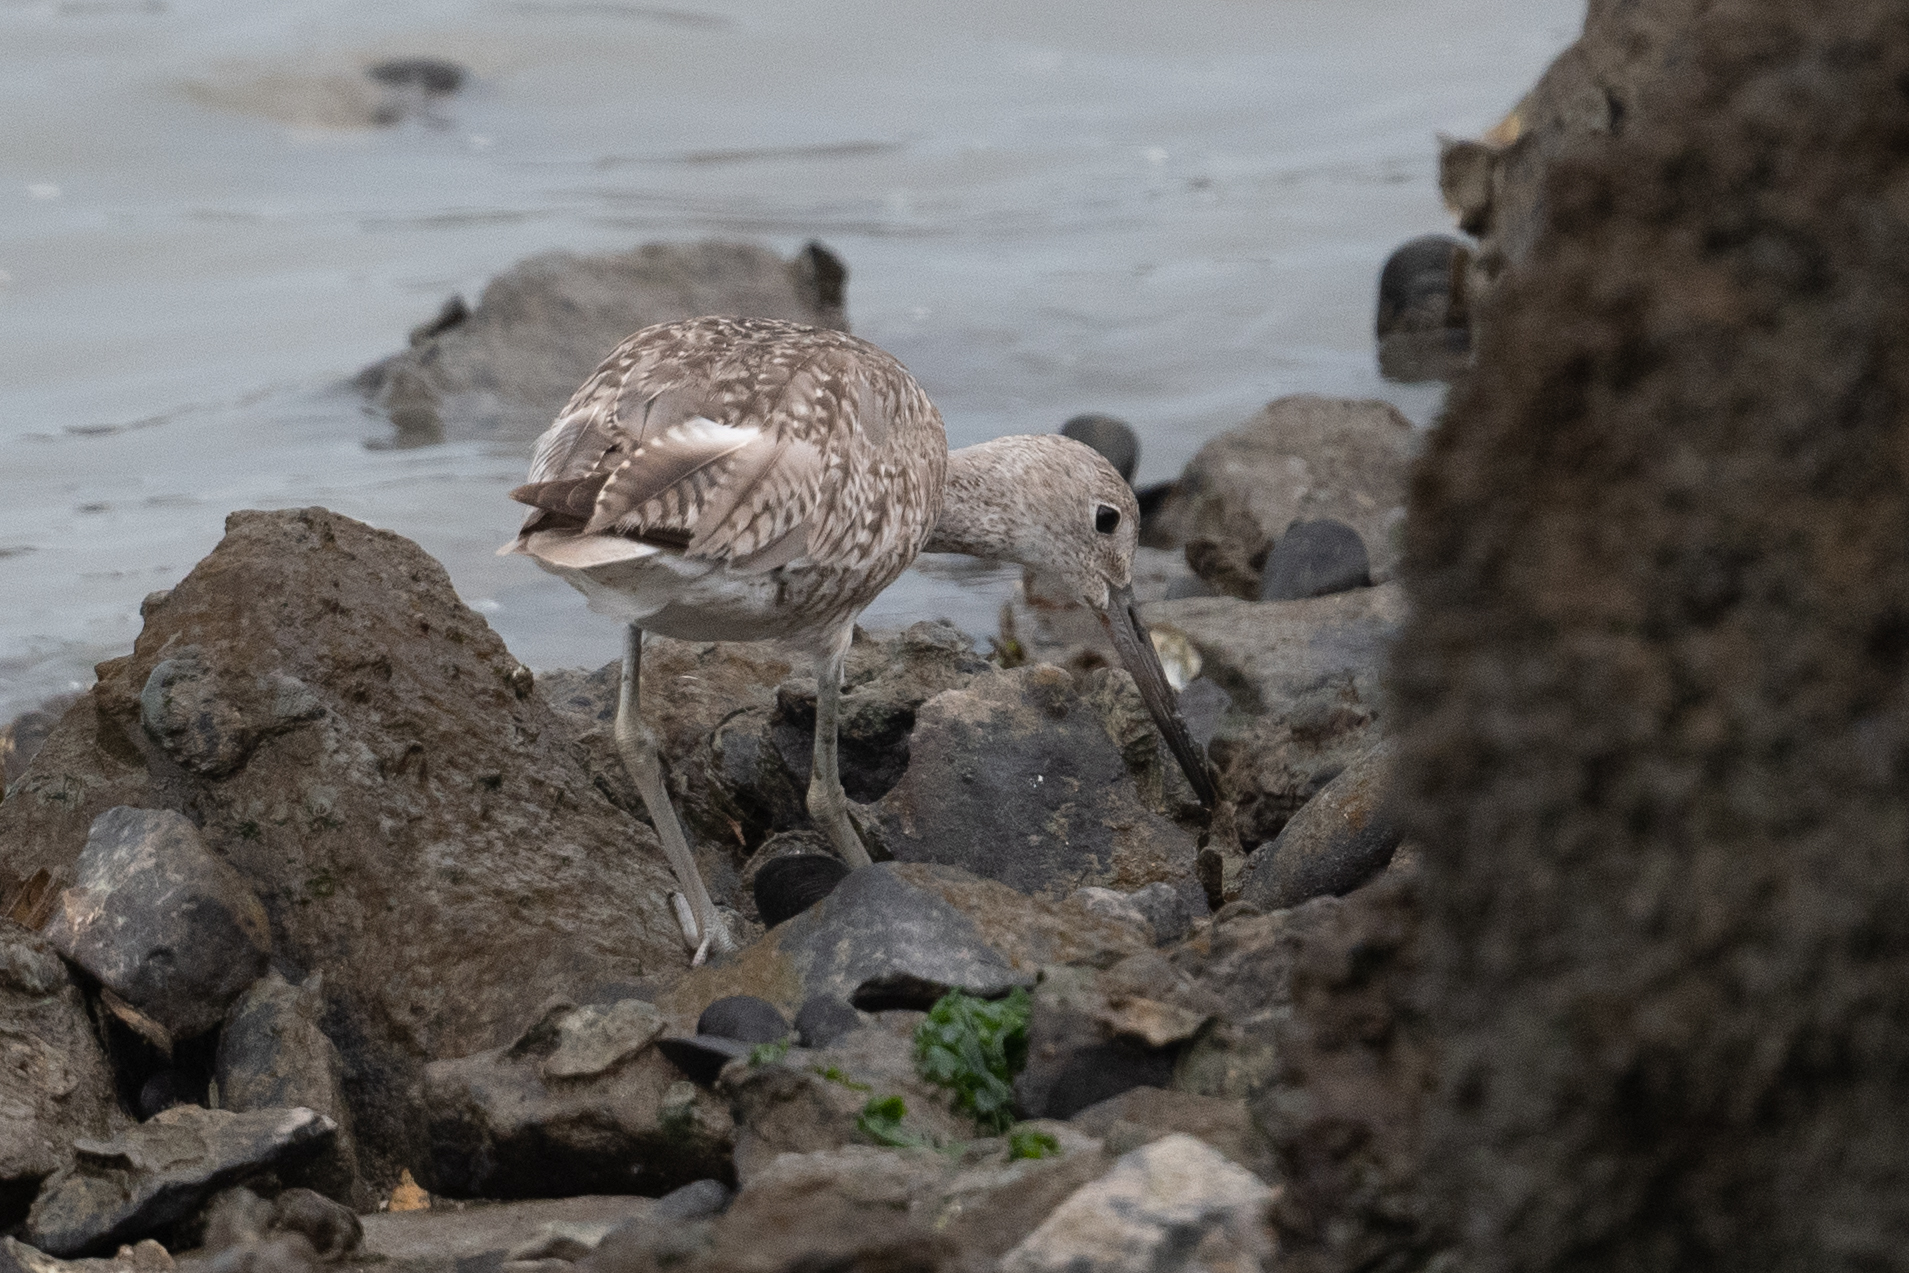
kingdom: Animalia
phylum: Chordata
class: Aves
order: Charadriiformes
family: Scolopacidae
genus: Tringa
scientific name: Tringa semipalmata
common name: Willet
